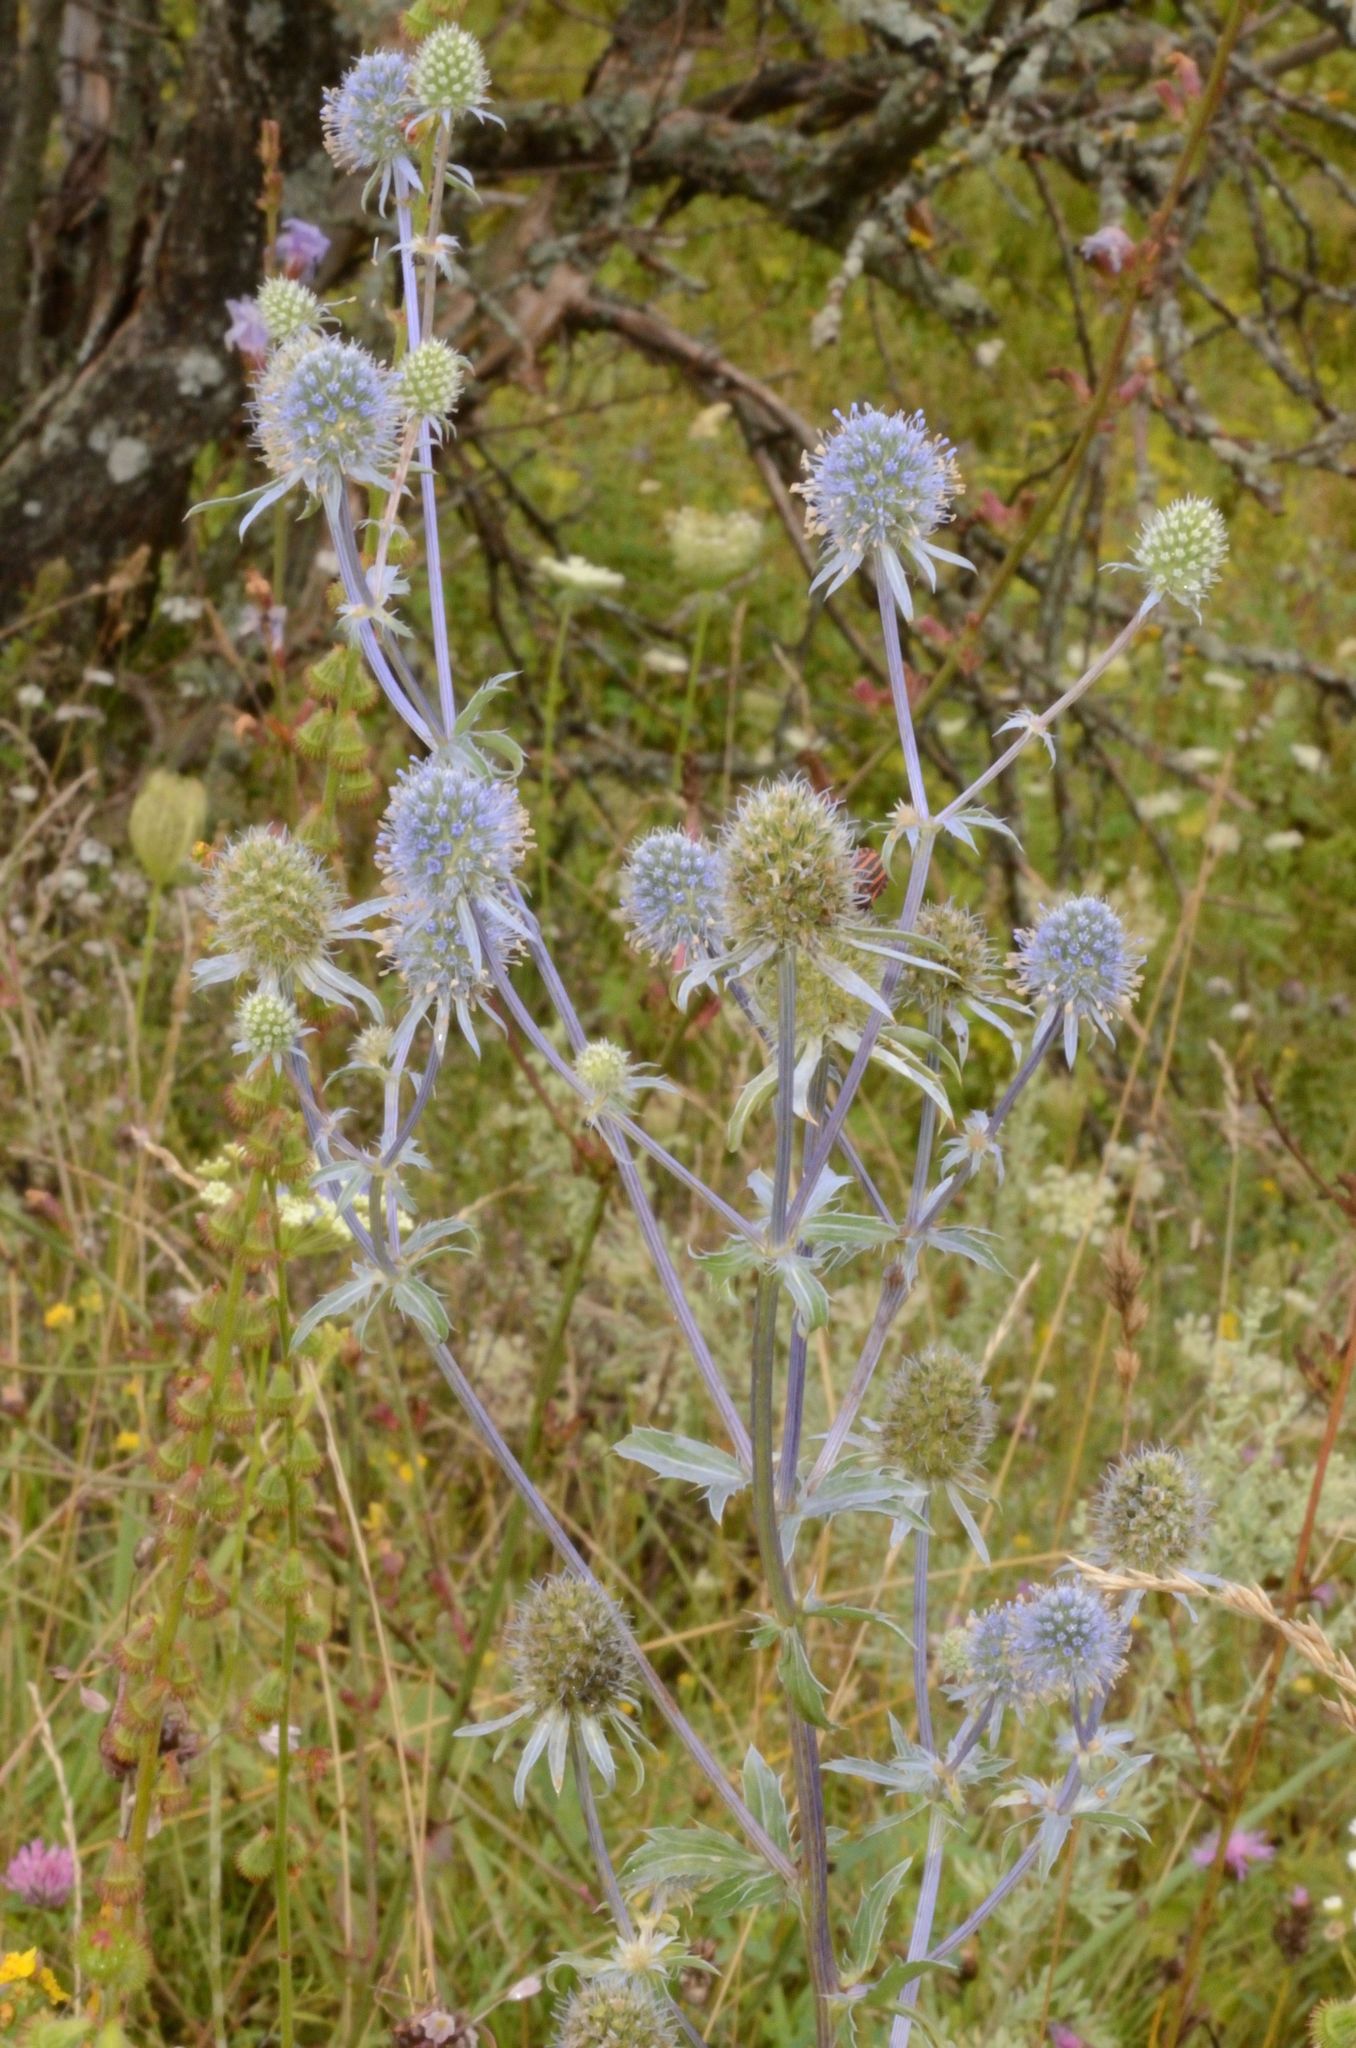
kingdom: Plantae
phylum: Tracheophyta
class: Magnoliopsida
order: Apiales
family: Apiaceae
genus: Eryngium
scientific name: Eryngium planum
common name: Blue eryngo
